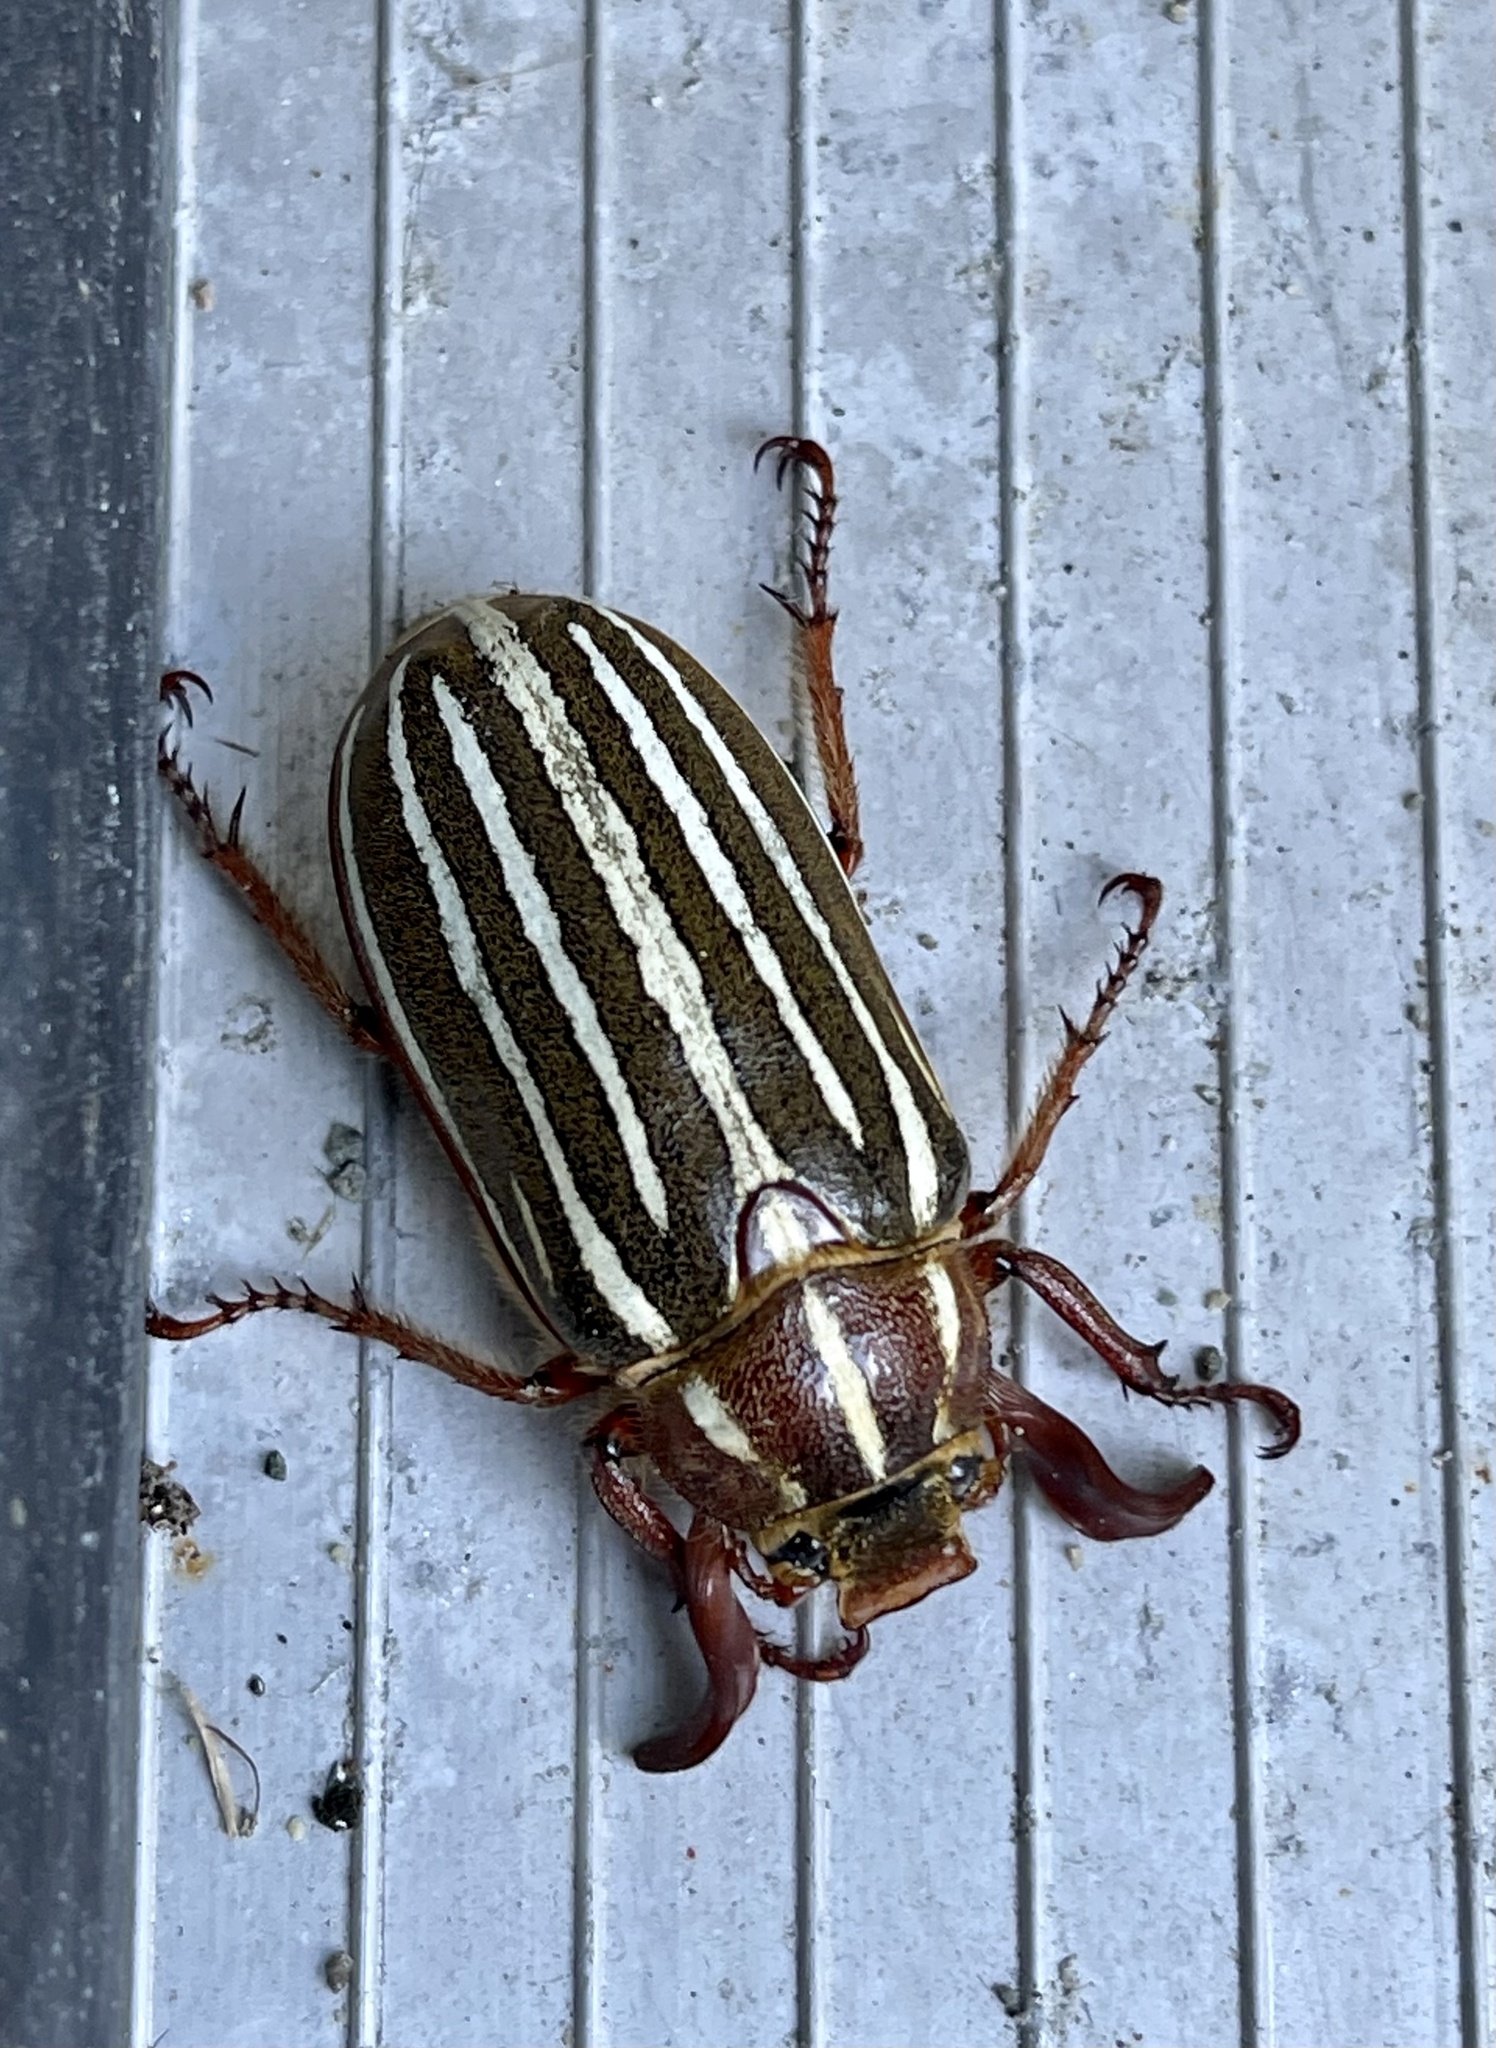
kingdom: Animalia
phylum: Arthropoda
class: Insecta
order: Coleoptera
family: Scarabaeidae
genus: Polyphylla
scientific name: Polyphylla crinita
